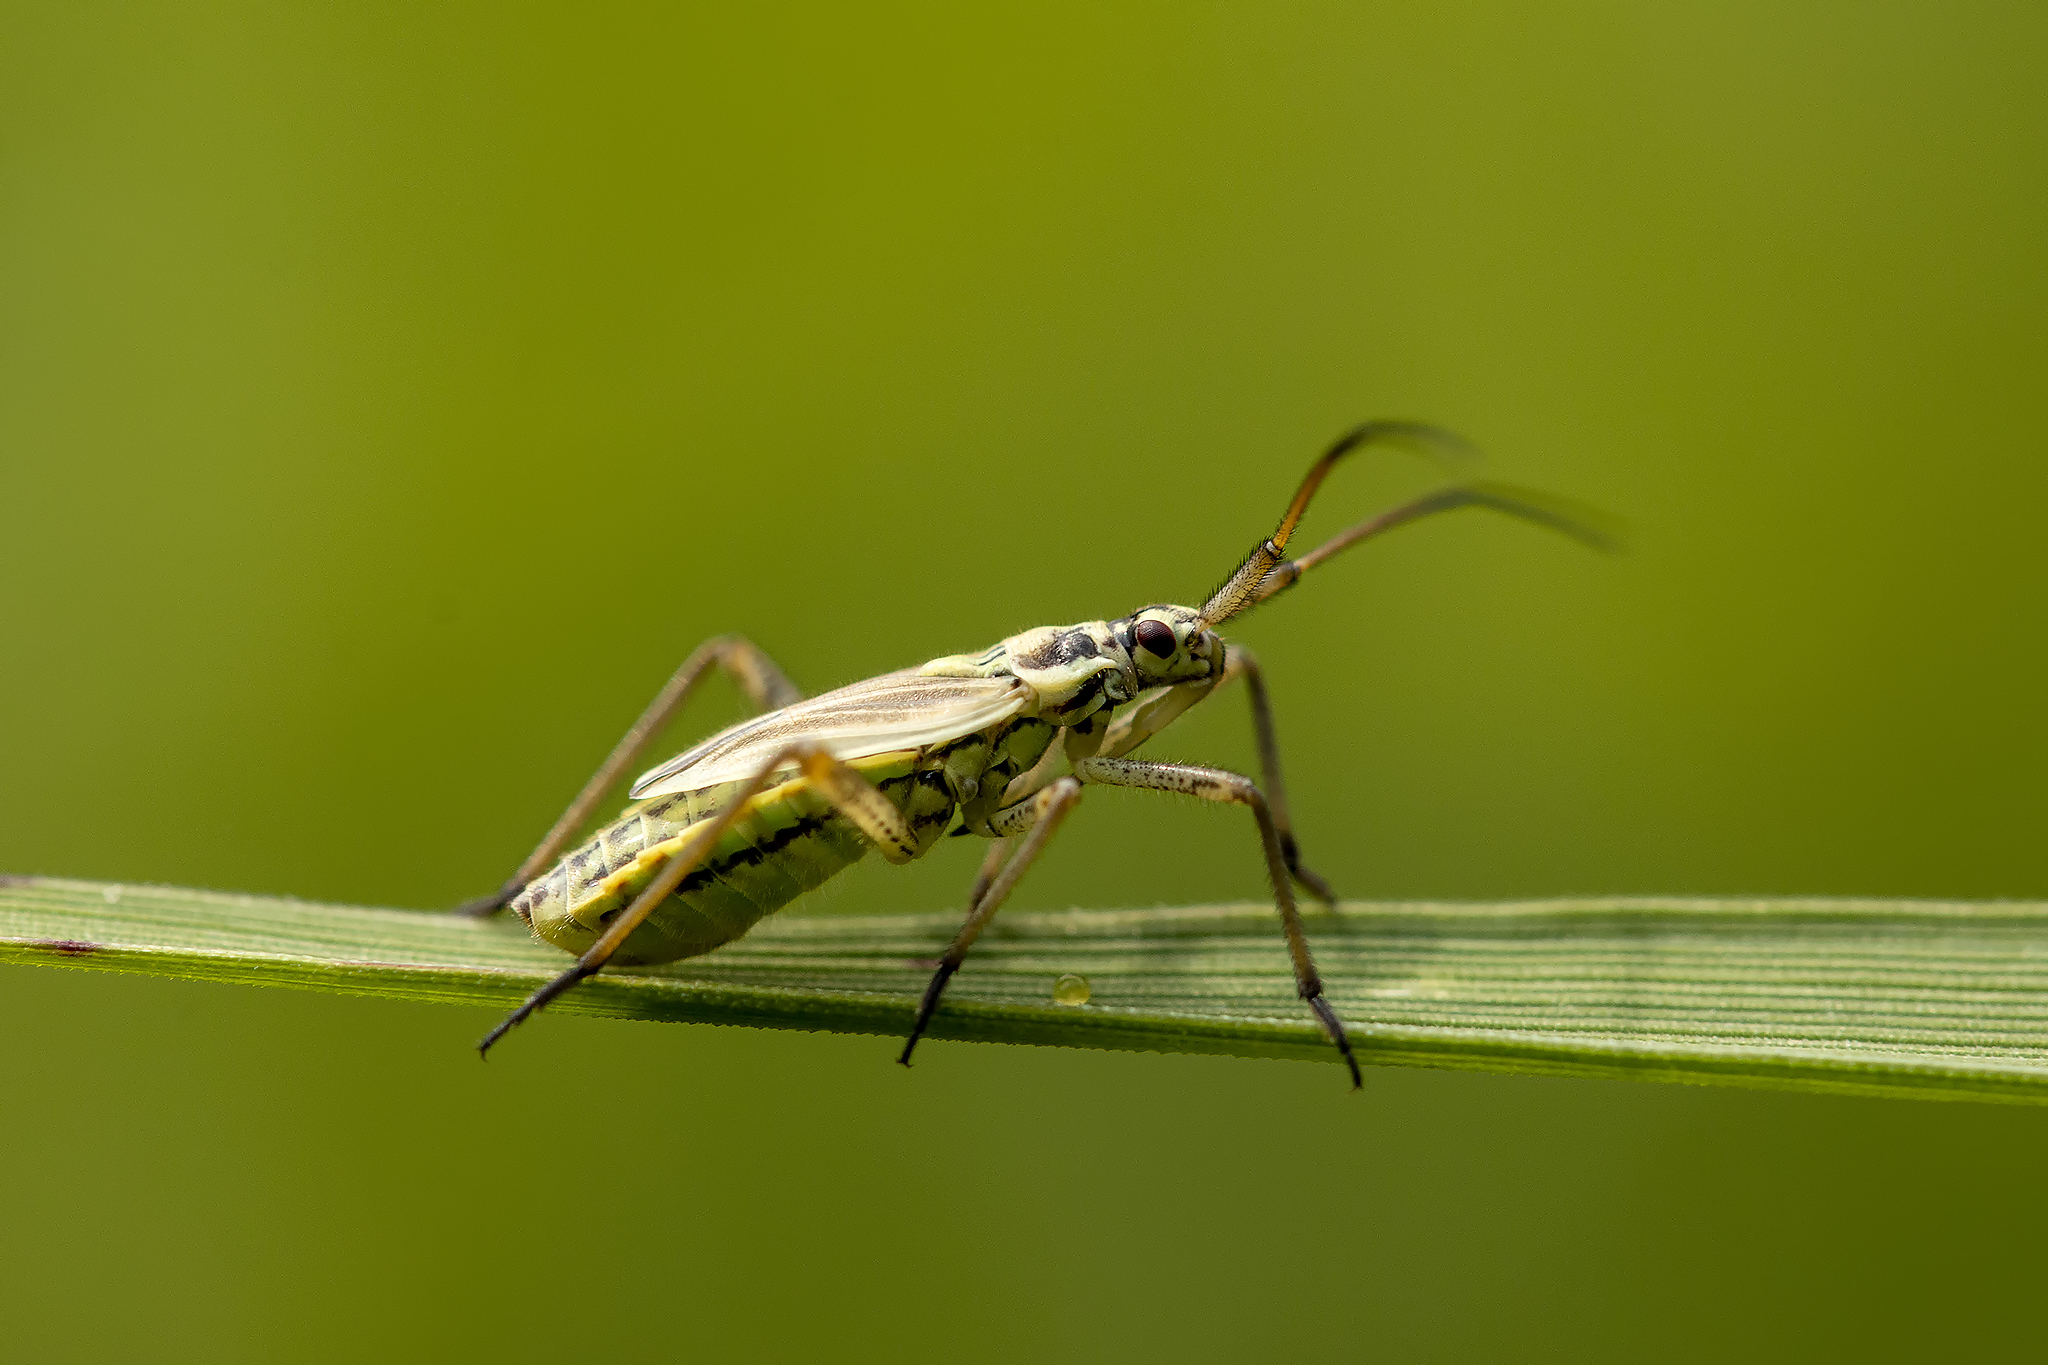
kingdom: Animalia
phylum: Arthropoda
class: Insecta
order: Hemiptera
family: Miridae
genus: Leptopterna
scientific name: Leptopterna dolabrata
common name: Meadow plant bug
